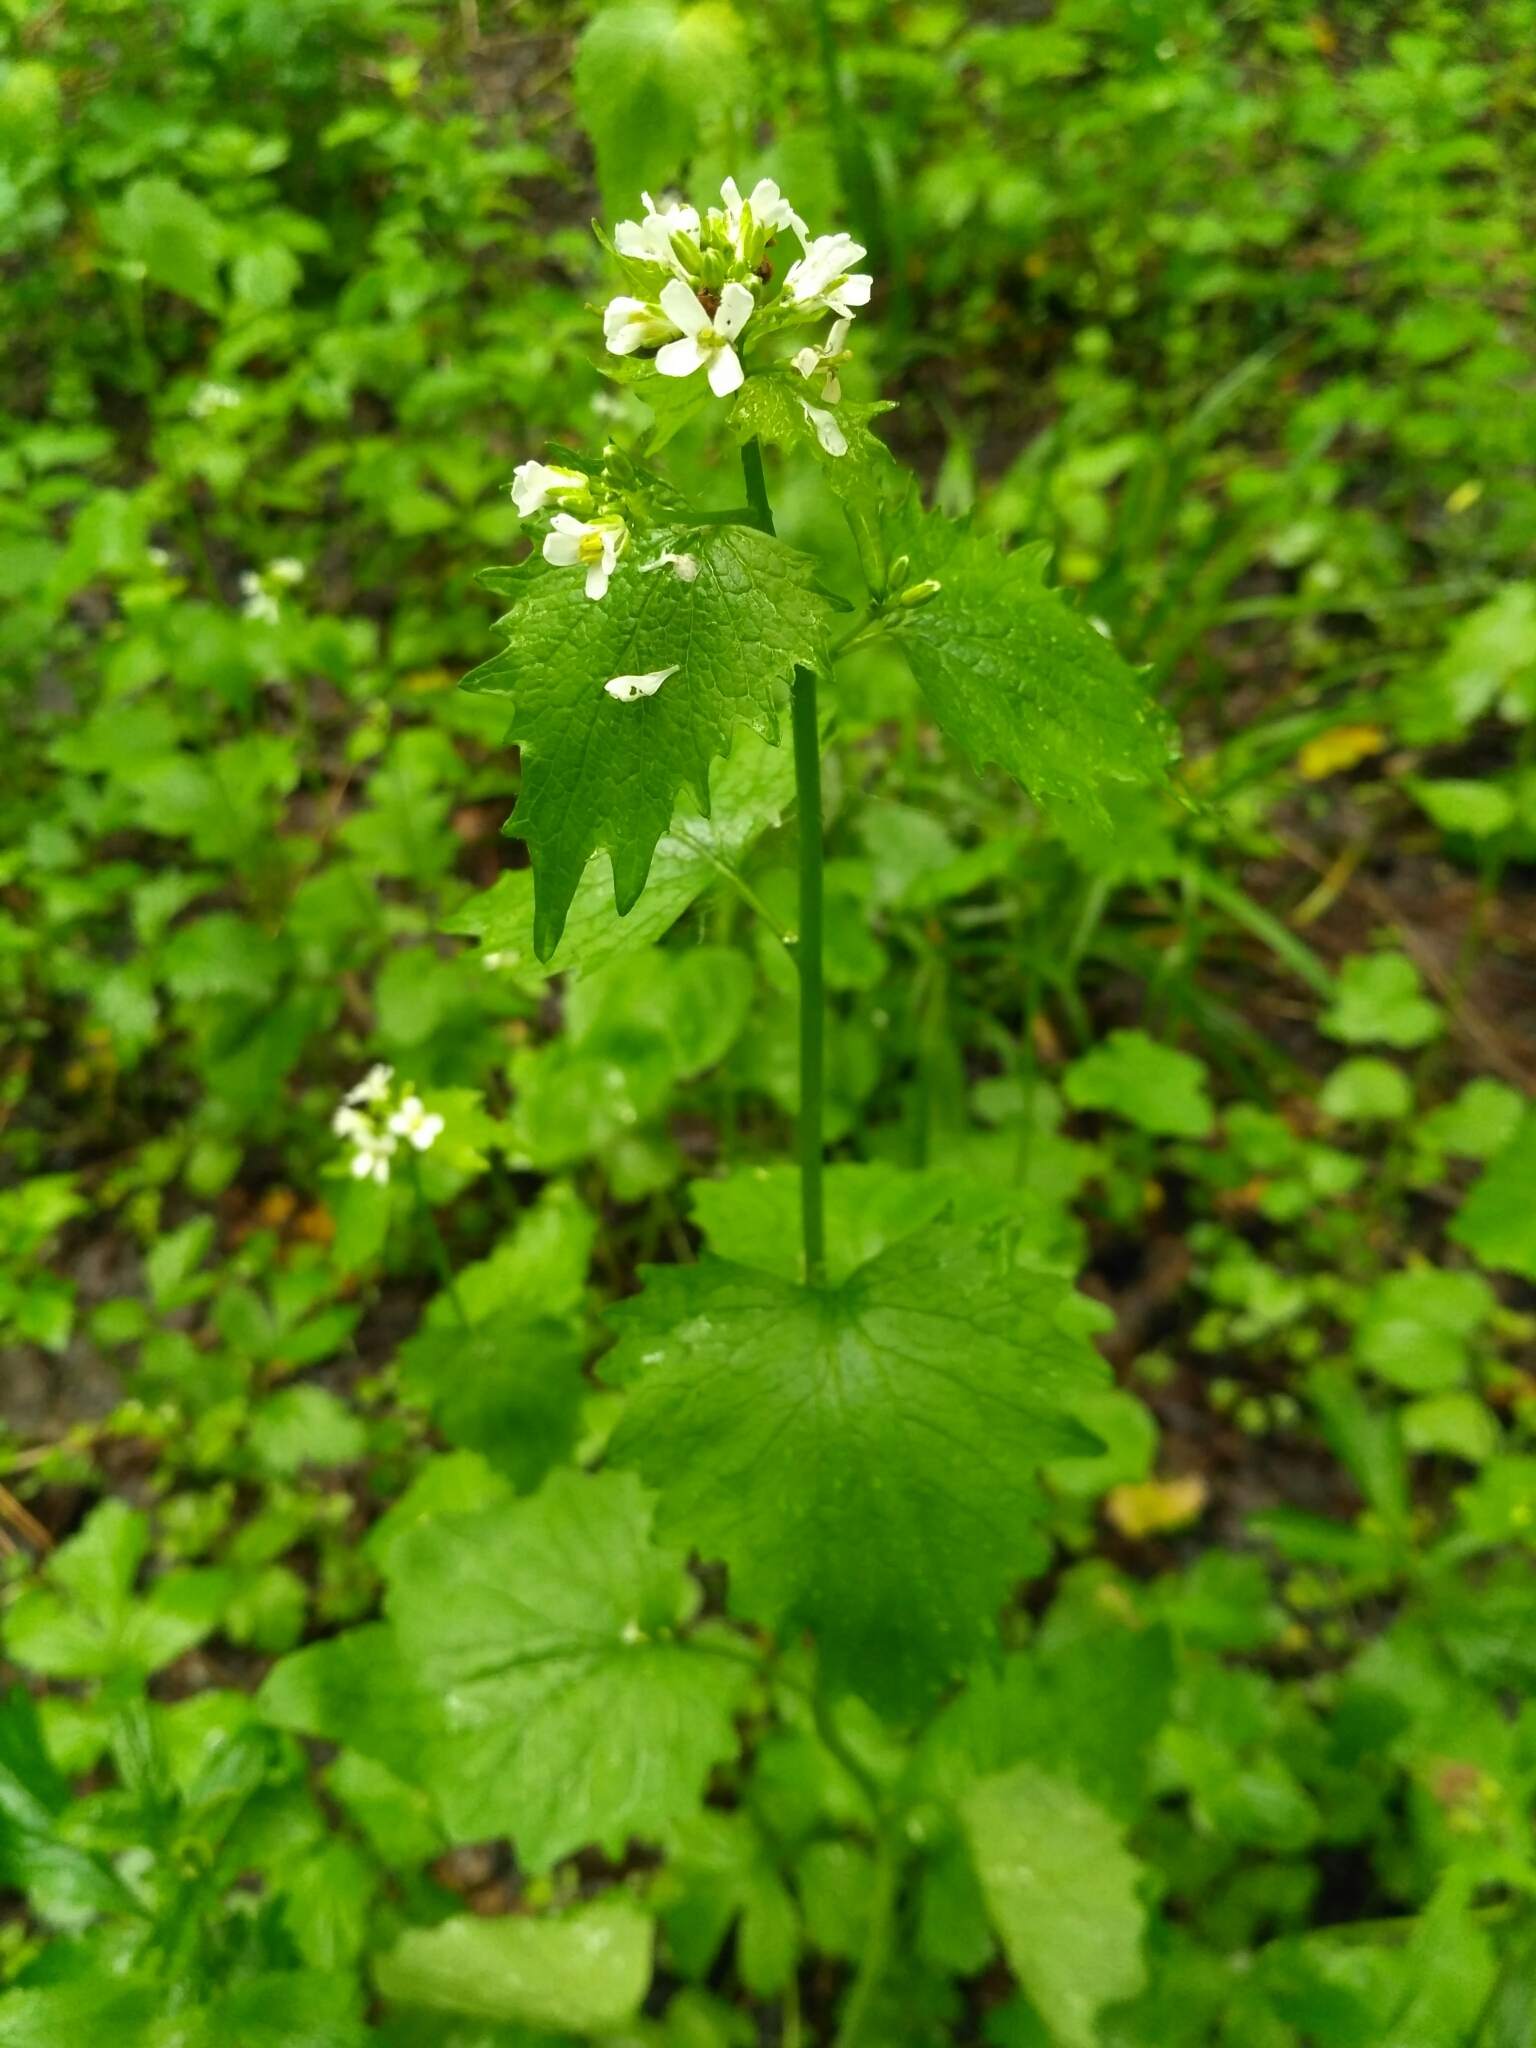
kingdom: Plantae
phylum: Tracheophyta
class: Magnoliopsida
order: Brassicales
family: Brassicaceae
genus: Alliaria
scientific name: Alliaria petiolata
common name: Garlic mustard
